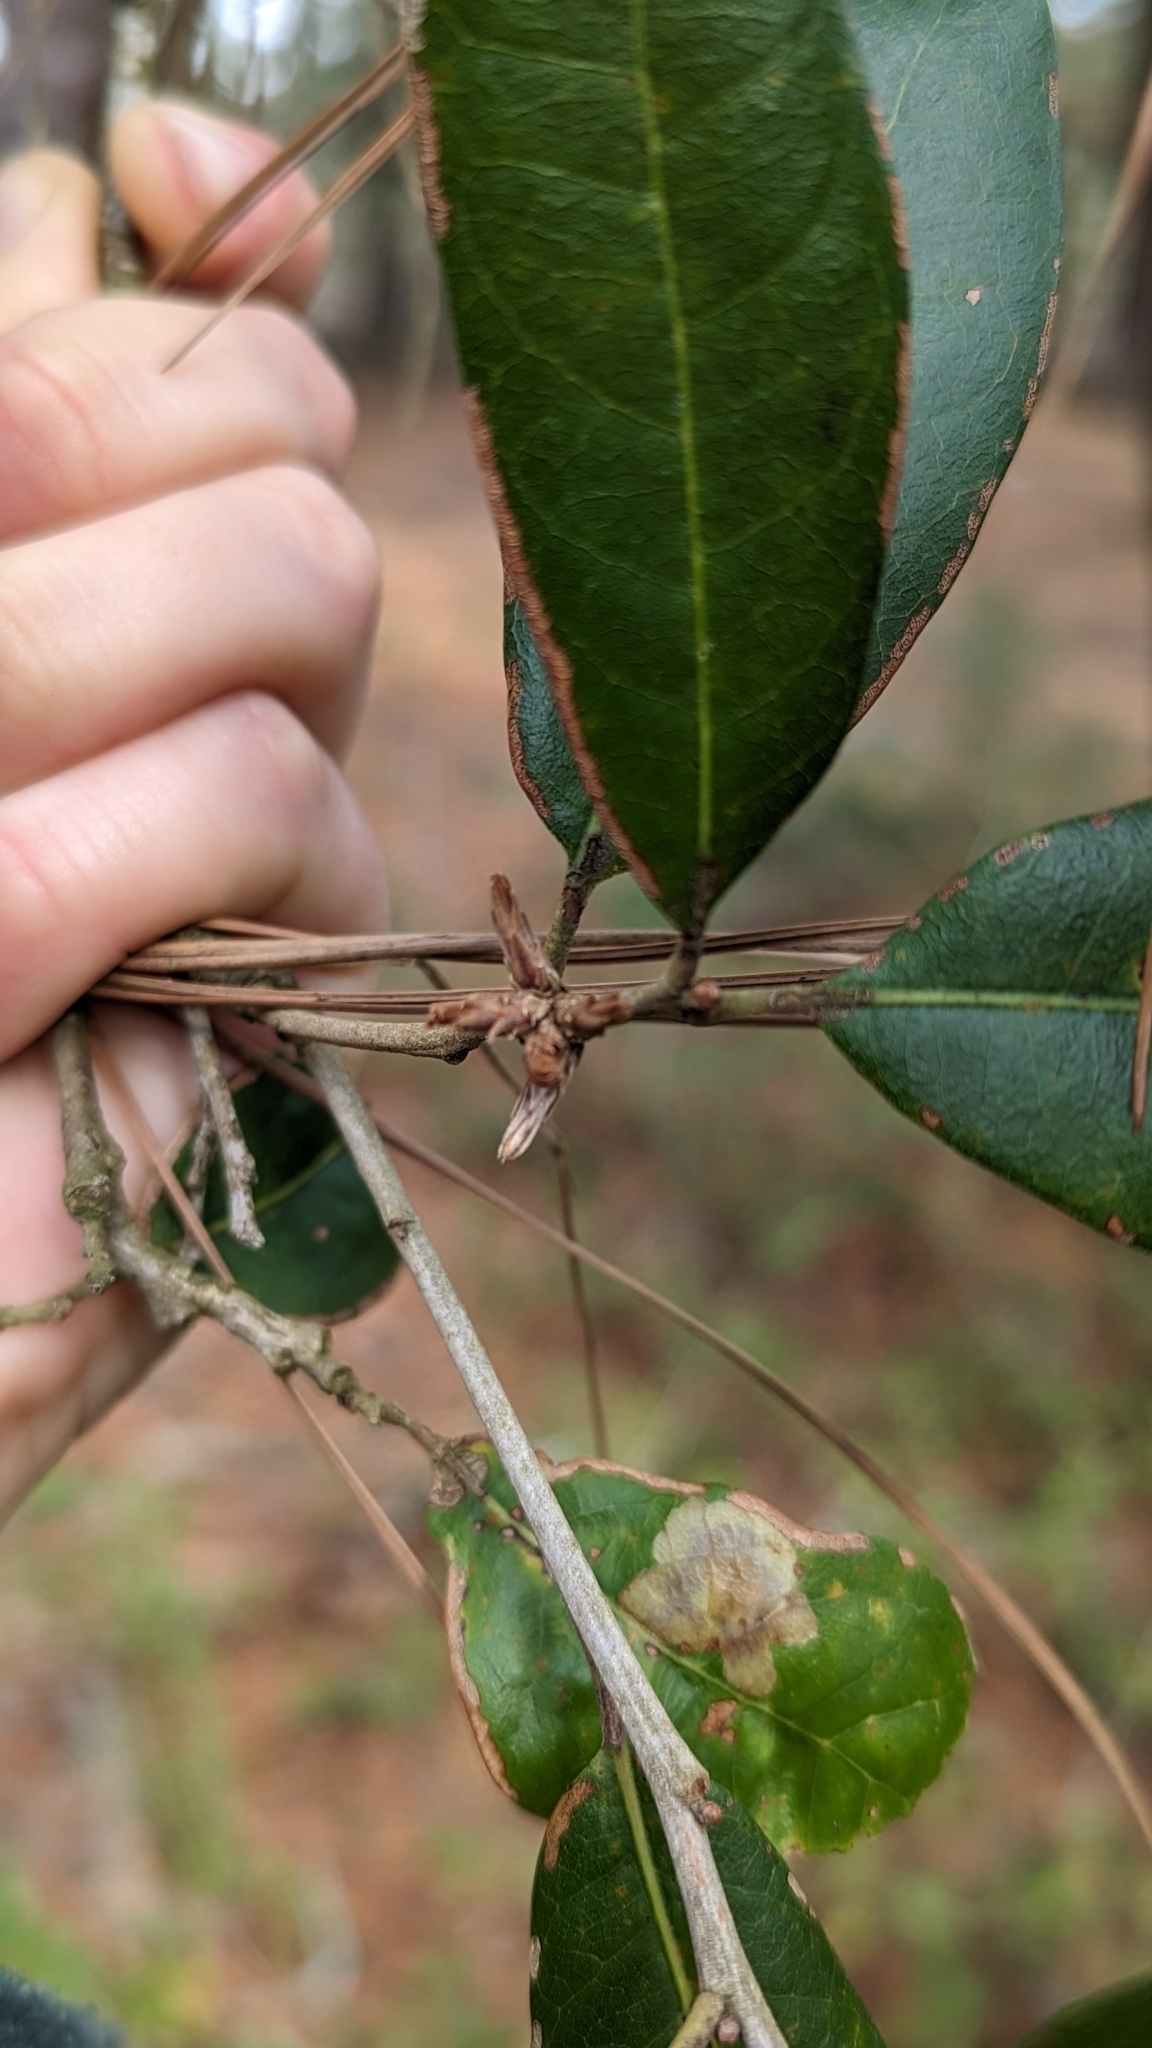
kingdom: Plantae
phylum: Tracheophyta
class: Magnoliopsida
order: Fagales
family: Fagaceae
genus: Quercus
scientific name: Quercus virginiana
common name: Southern live oak
